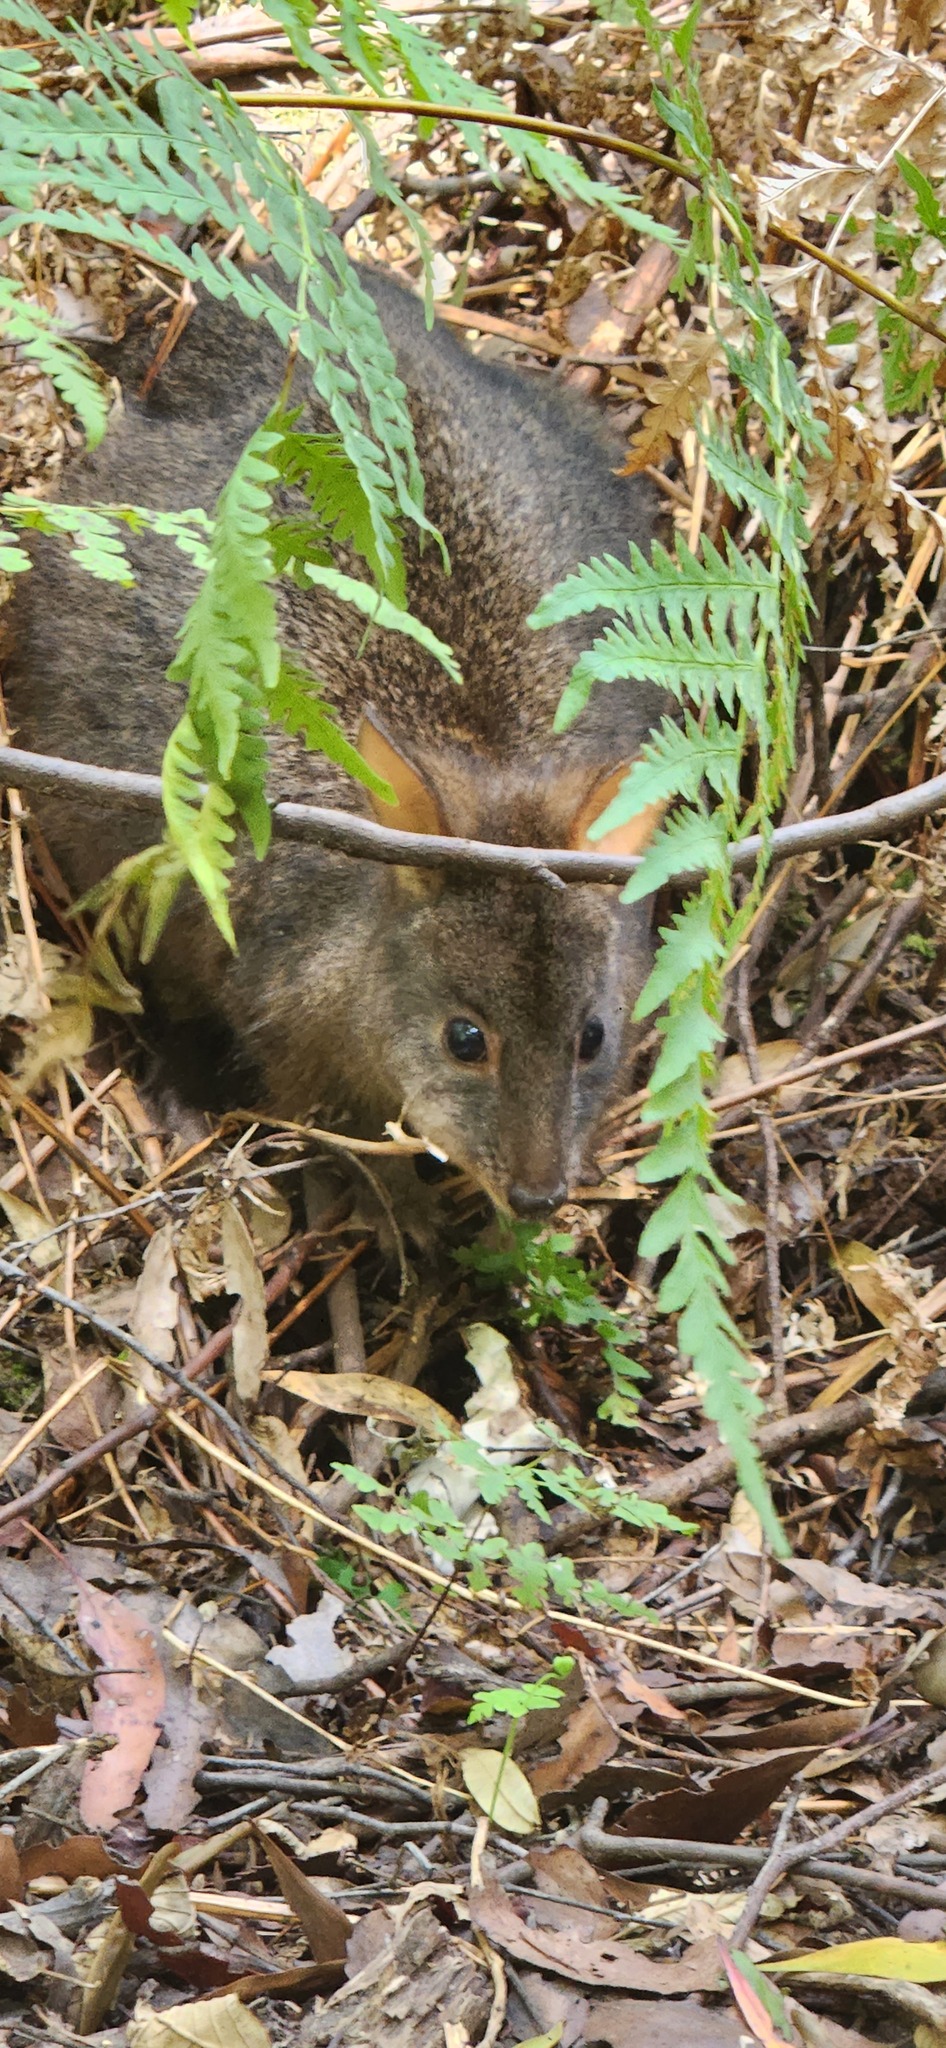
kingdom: Animalia
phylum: Chordata
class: Mammalia
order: Diprotodontia
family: Macropodidae
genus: Thylogale
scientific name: Thylogale billardierii
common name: Tasmanian pademelon
